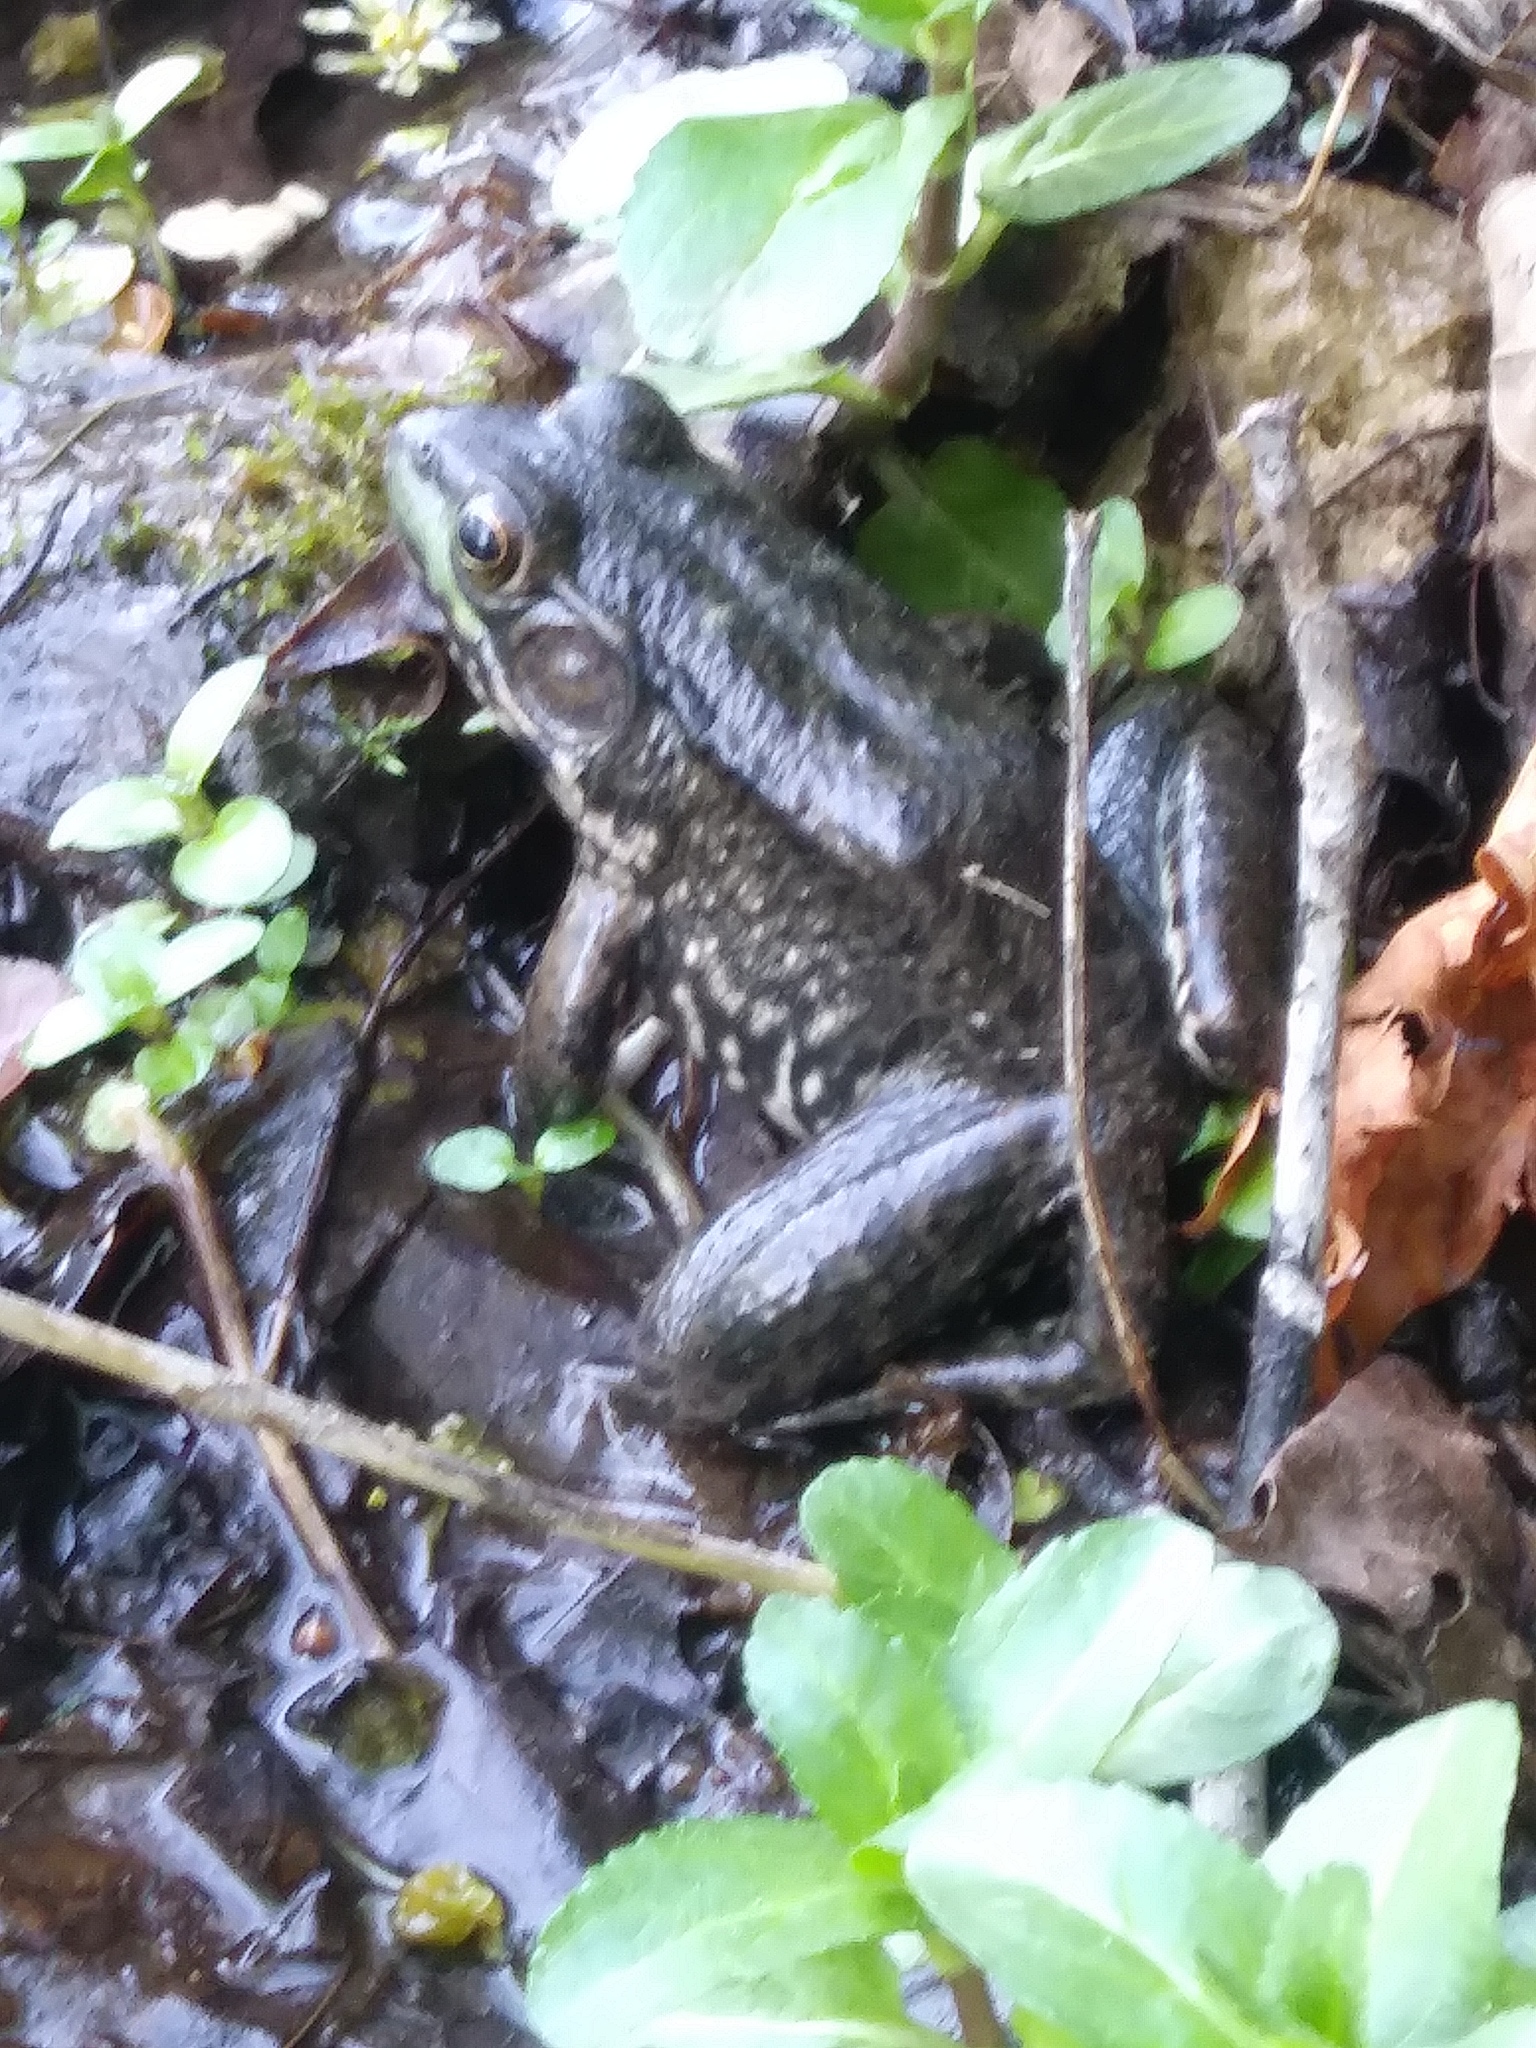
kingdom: Animalia
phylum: Chordata
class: Amphibia
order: Anura
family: Ranidae
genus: Lithobates
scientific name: Lithobates clamitans
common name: Green frog
